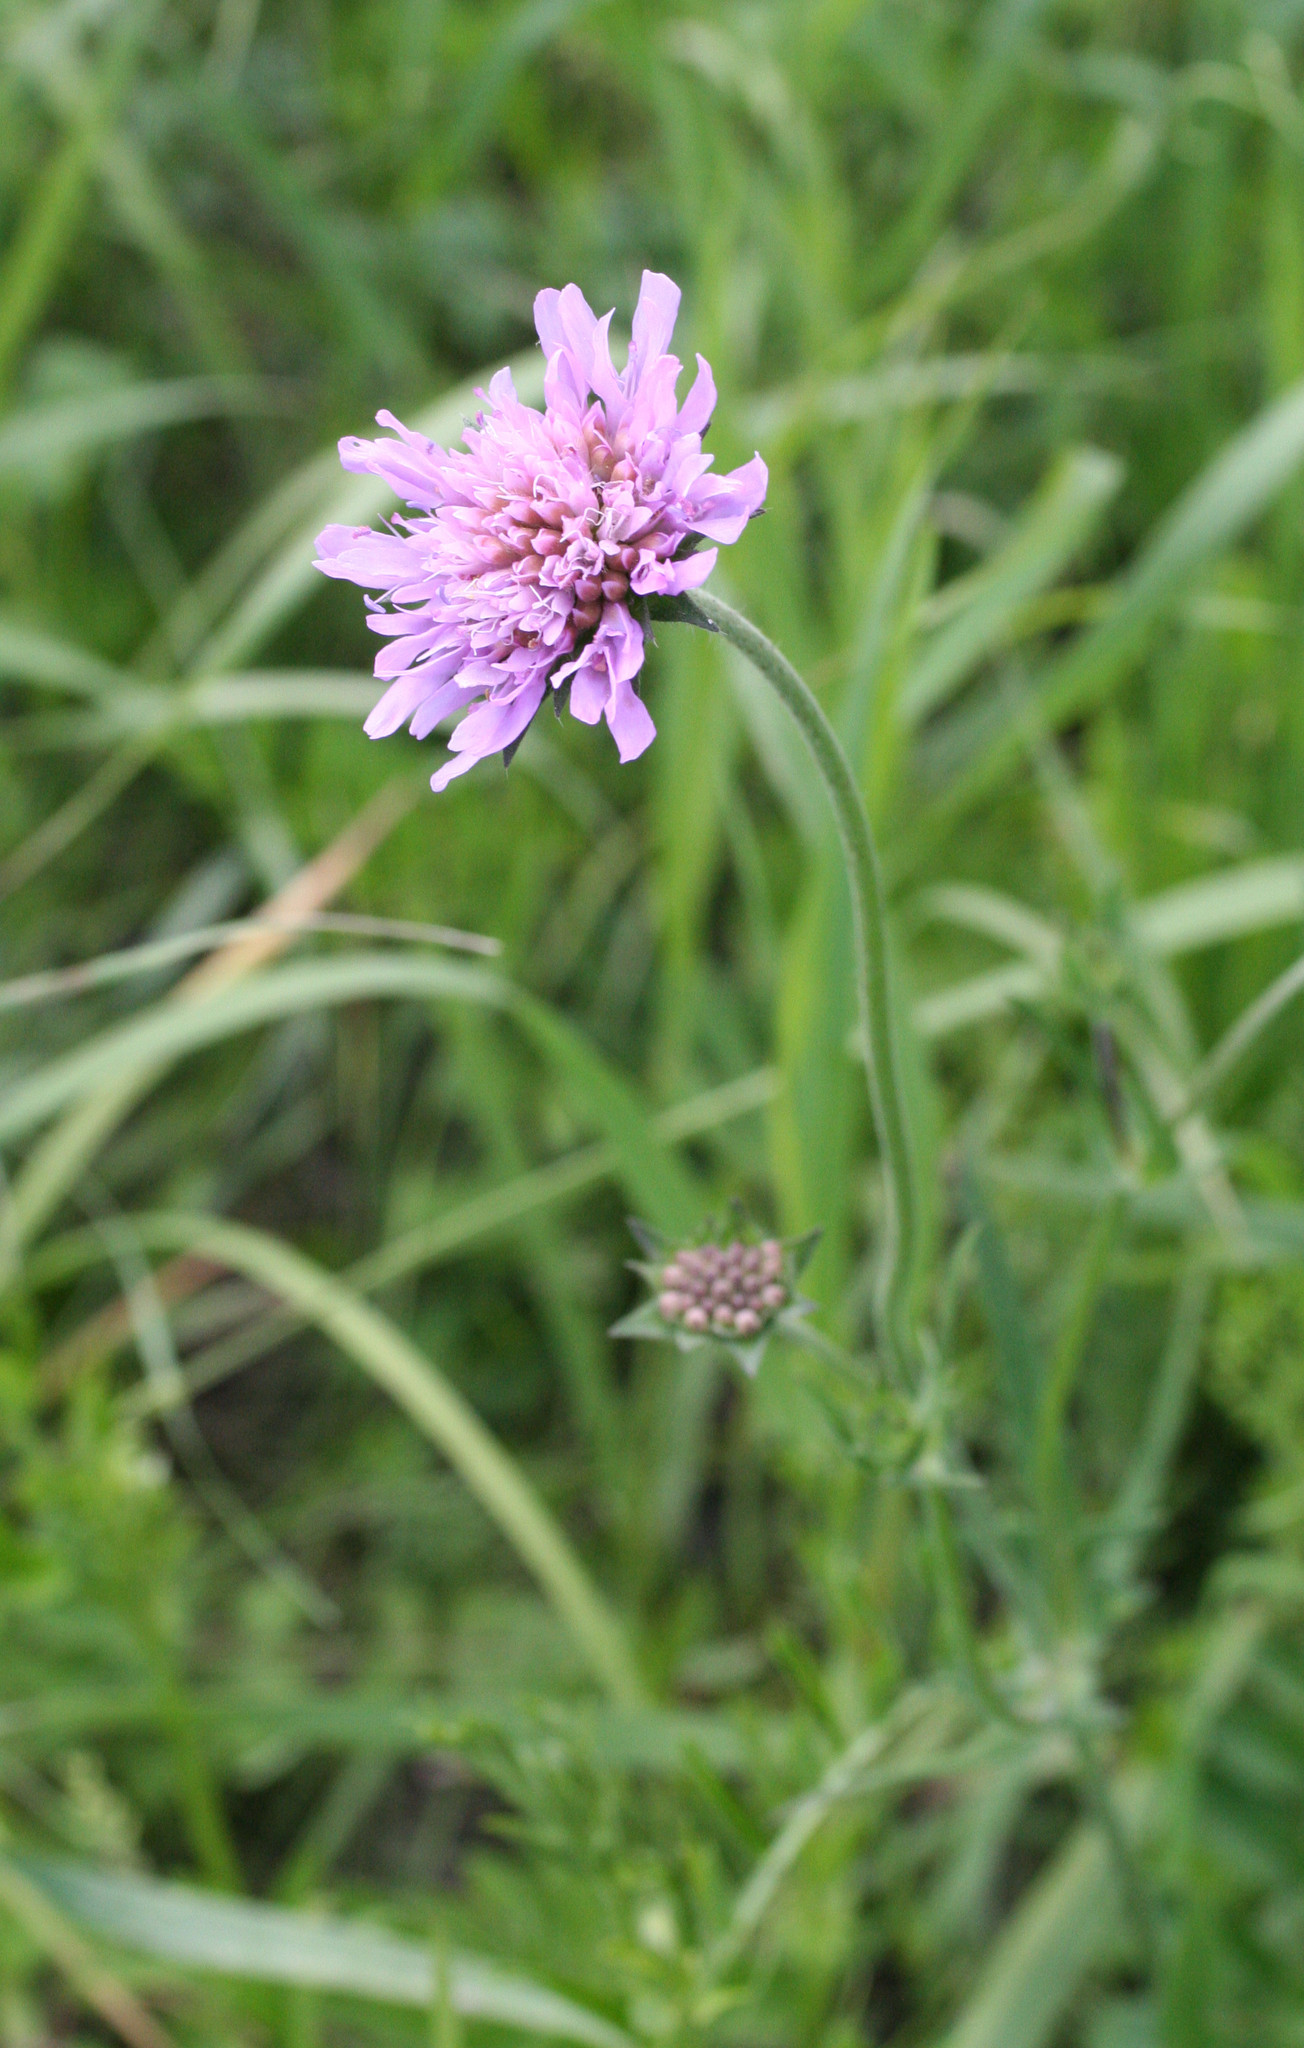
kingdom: Plantae
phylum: Tracheophyta
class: Magnoliopsida
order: Dipsacales
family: Caprifoliaceae
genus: Knautia
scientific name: Knautia arvensis
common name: Field scabiosa
